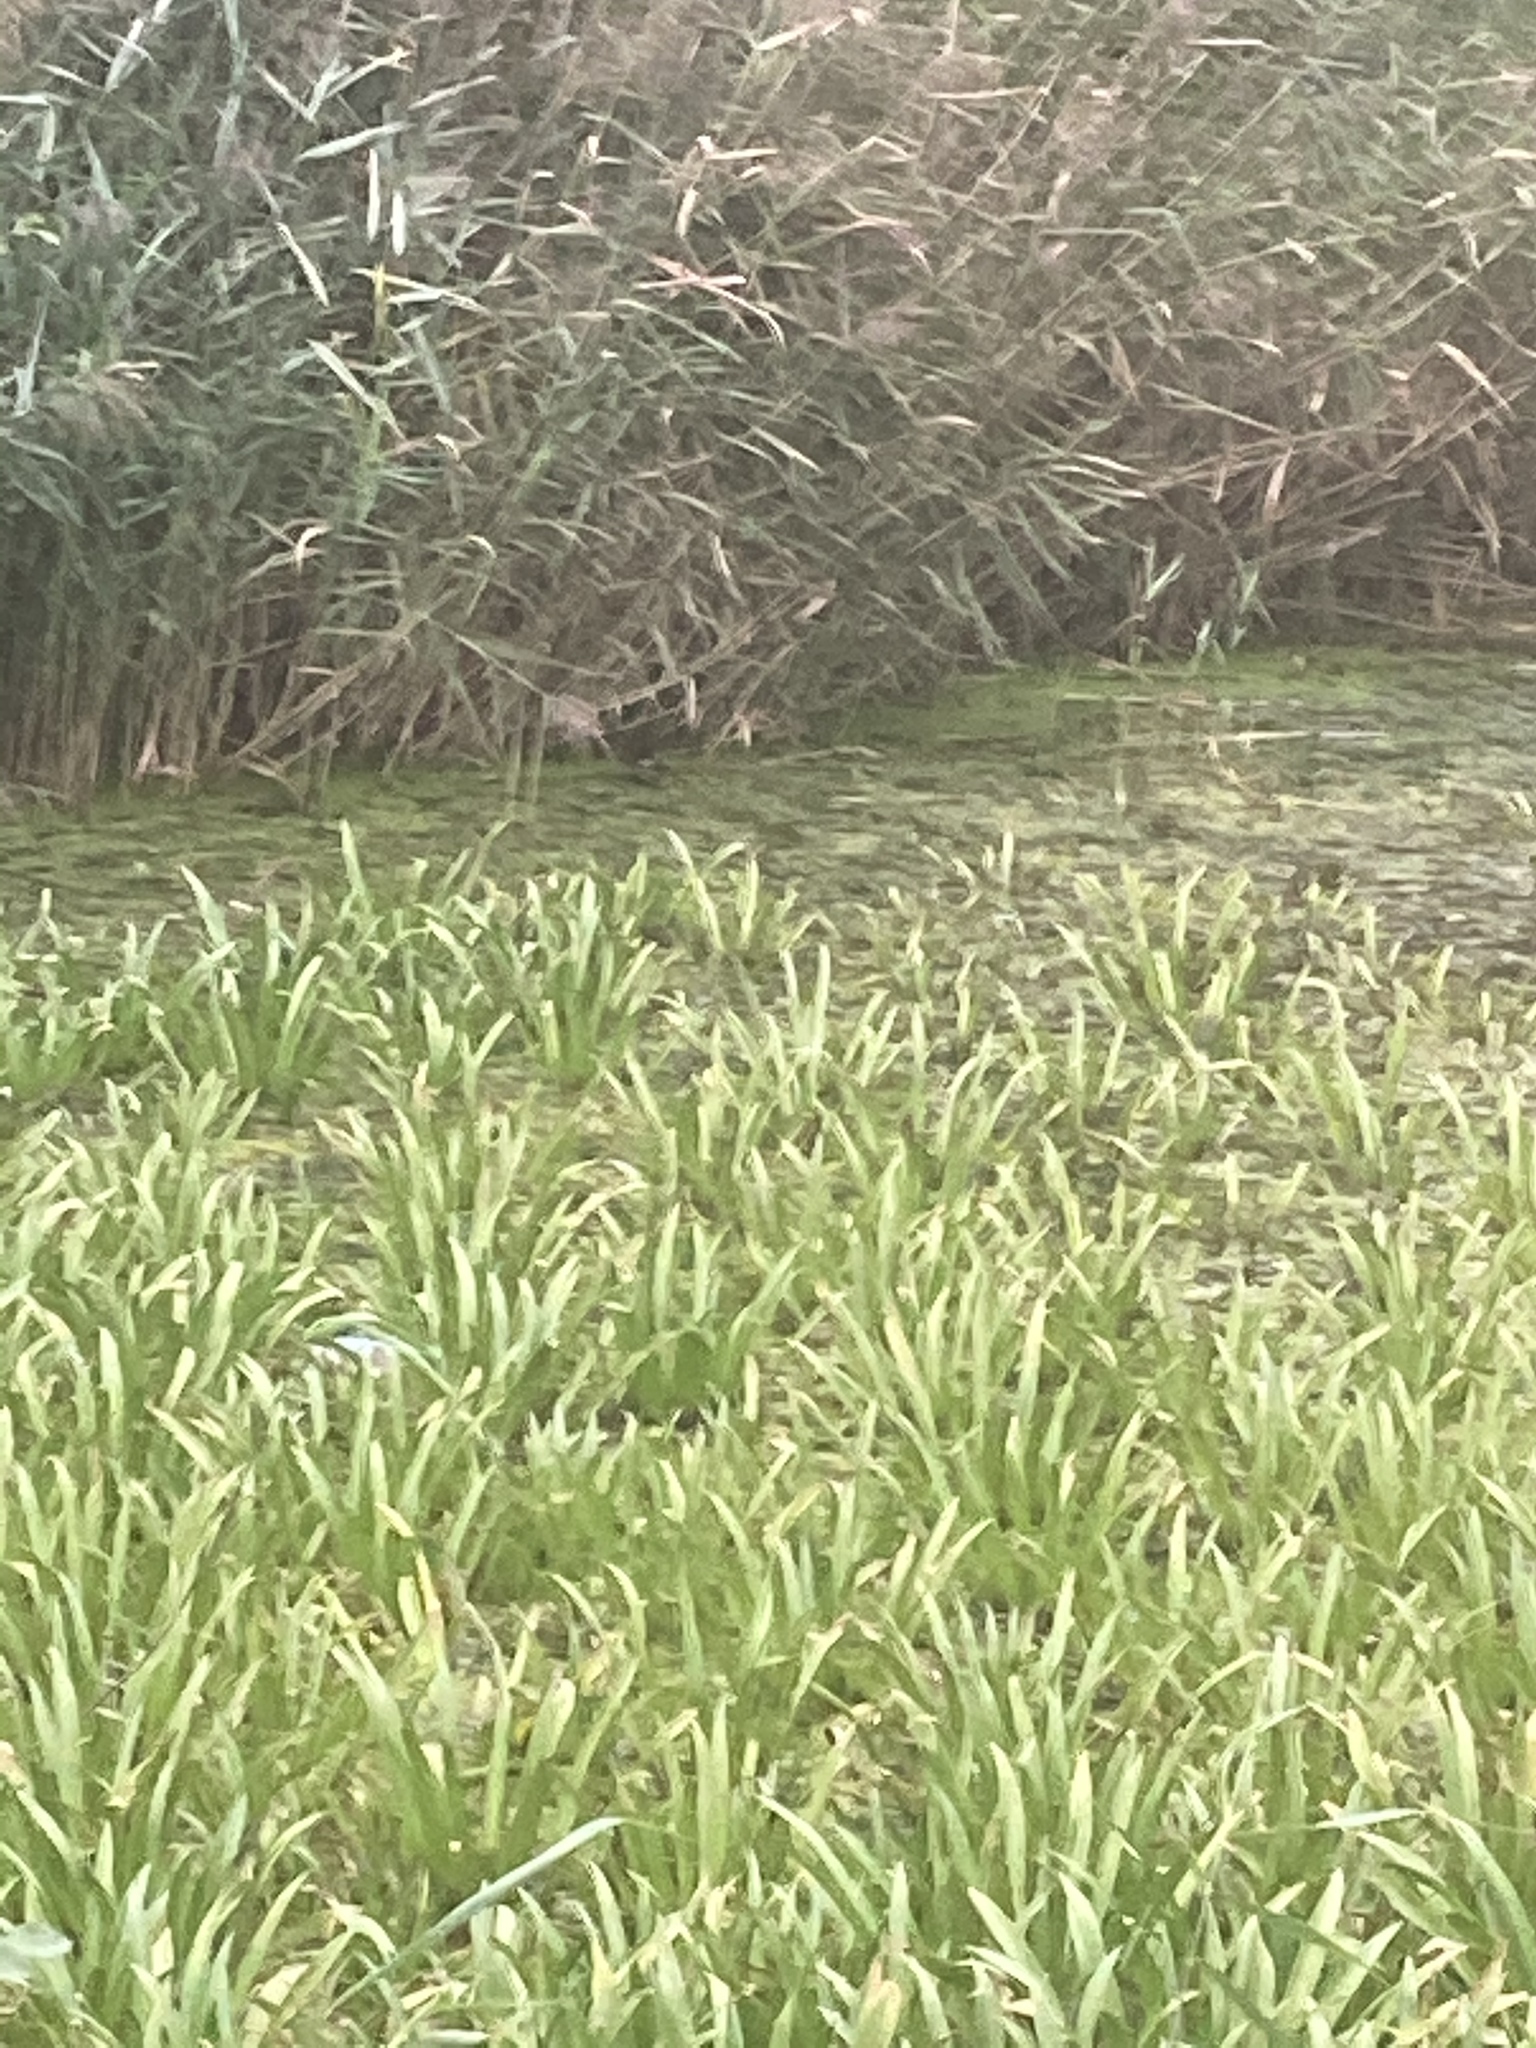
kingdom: Plantae
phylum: Tracheophyta
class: Liliopsida
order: Alismatales
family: Hydrocharitaceae
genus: Stratiotes
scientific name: Stratiotes aloides
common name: Water-soldier
